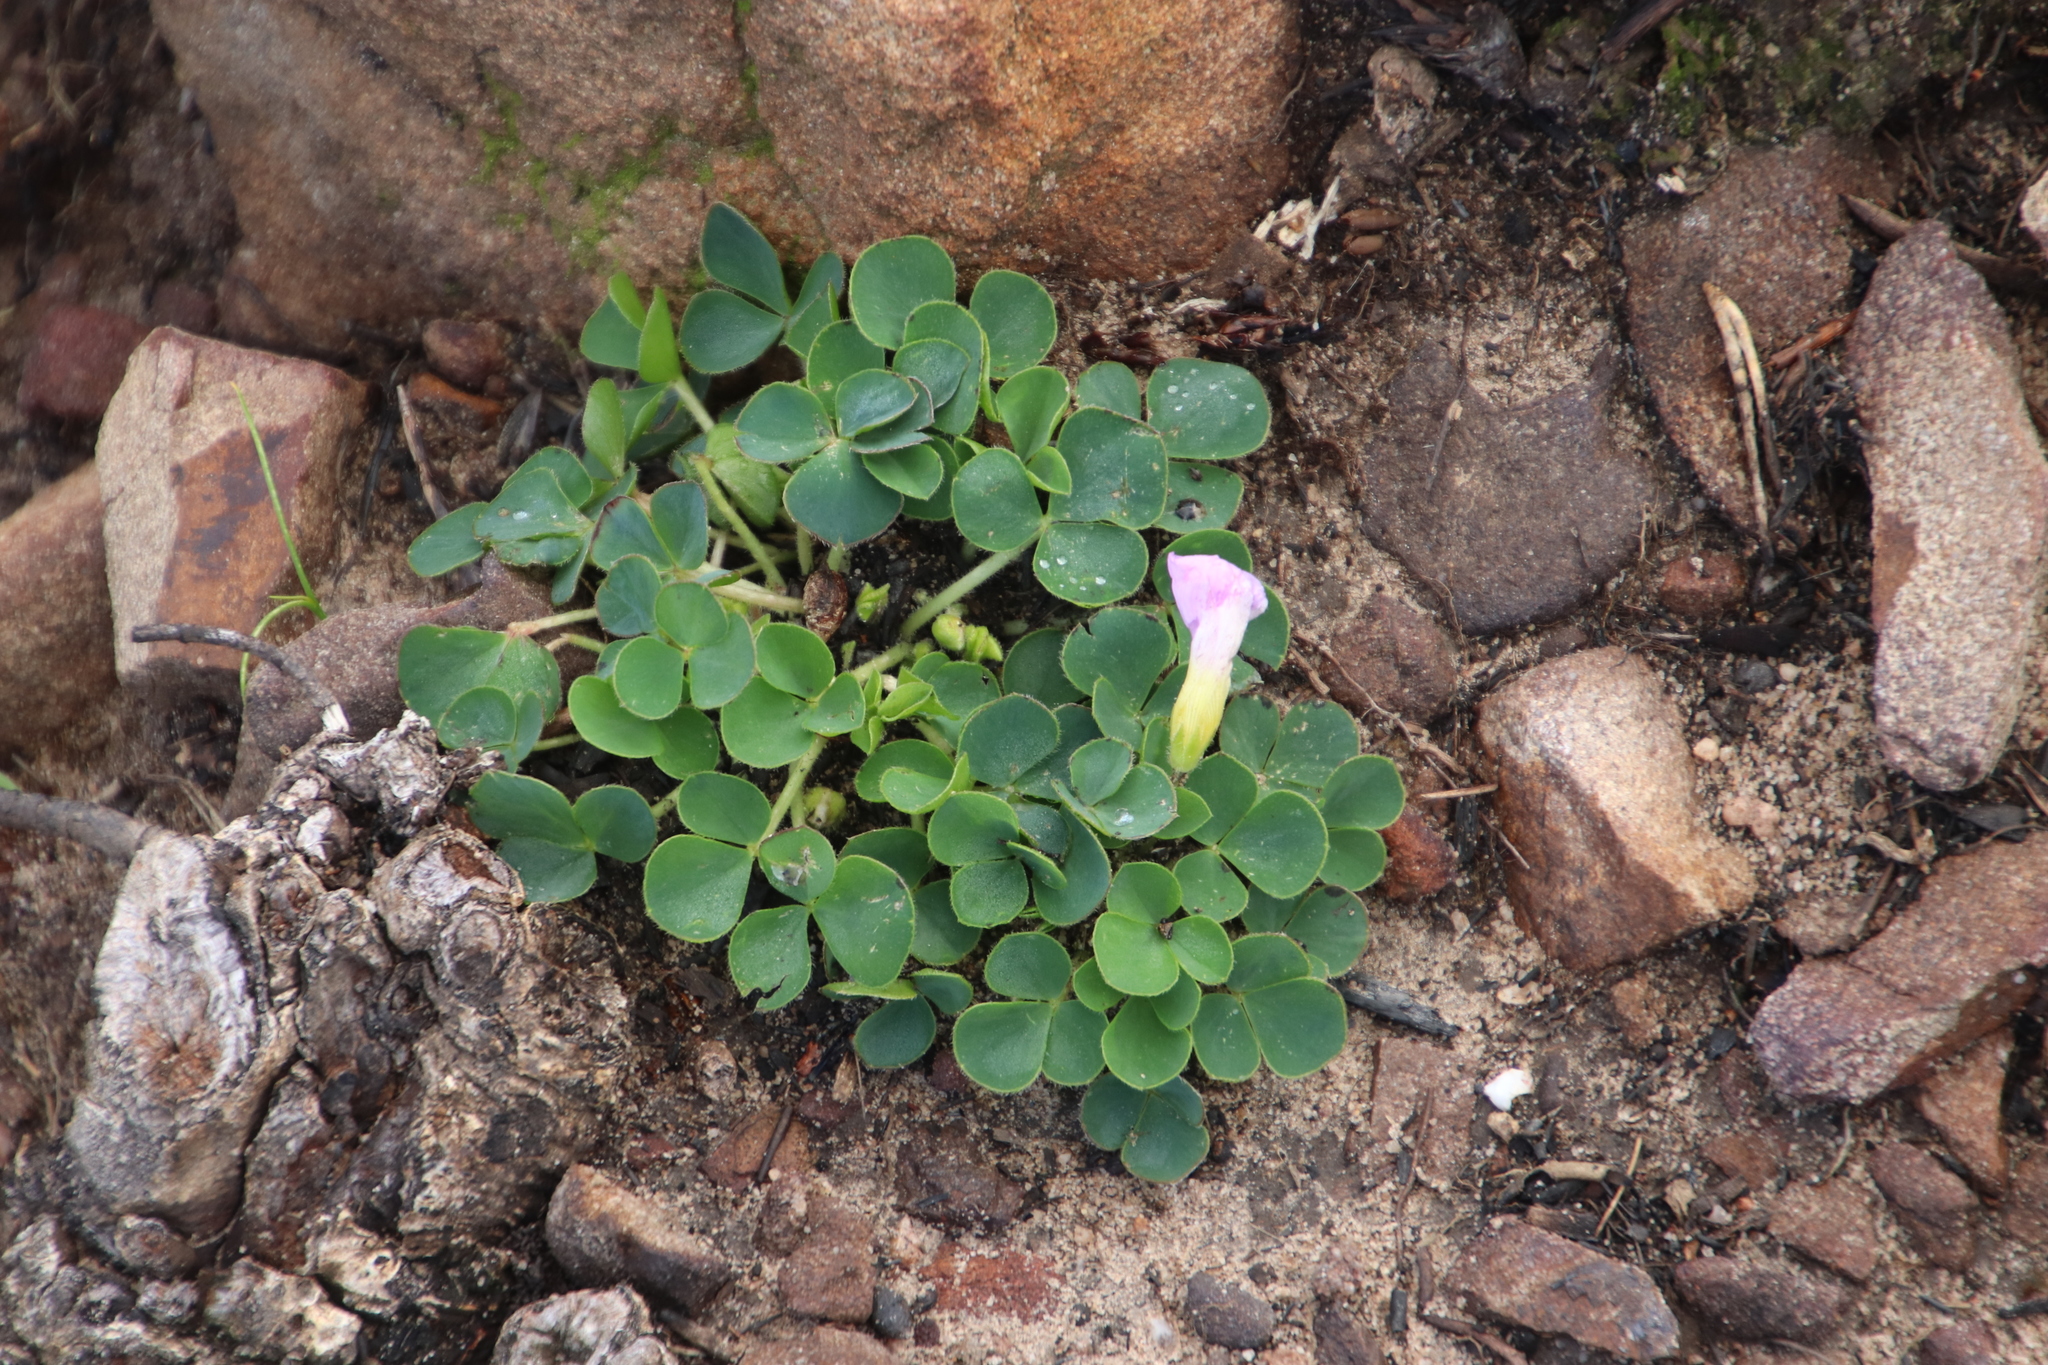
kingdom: Plantae
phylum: Tracheophyta
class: Magnoliopsida
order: Oxalidales
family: Oxalidaceae
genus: Oxalis
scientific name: Oxalis purpurea
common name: Purple woodsorrel
